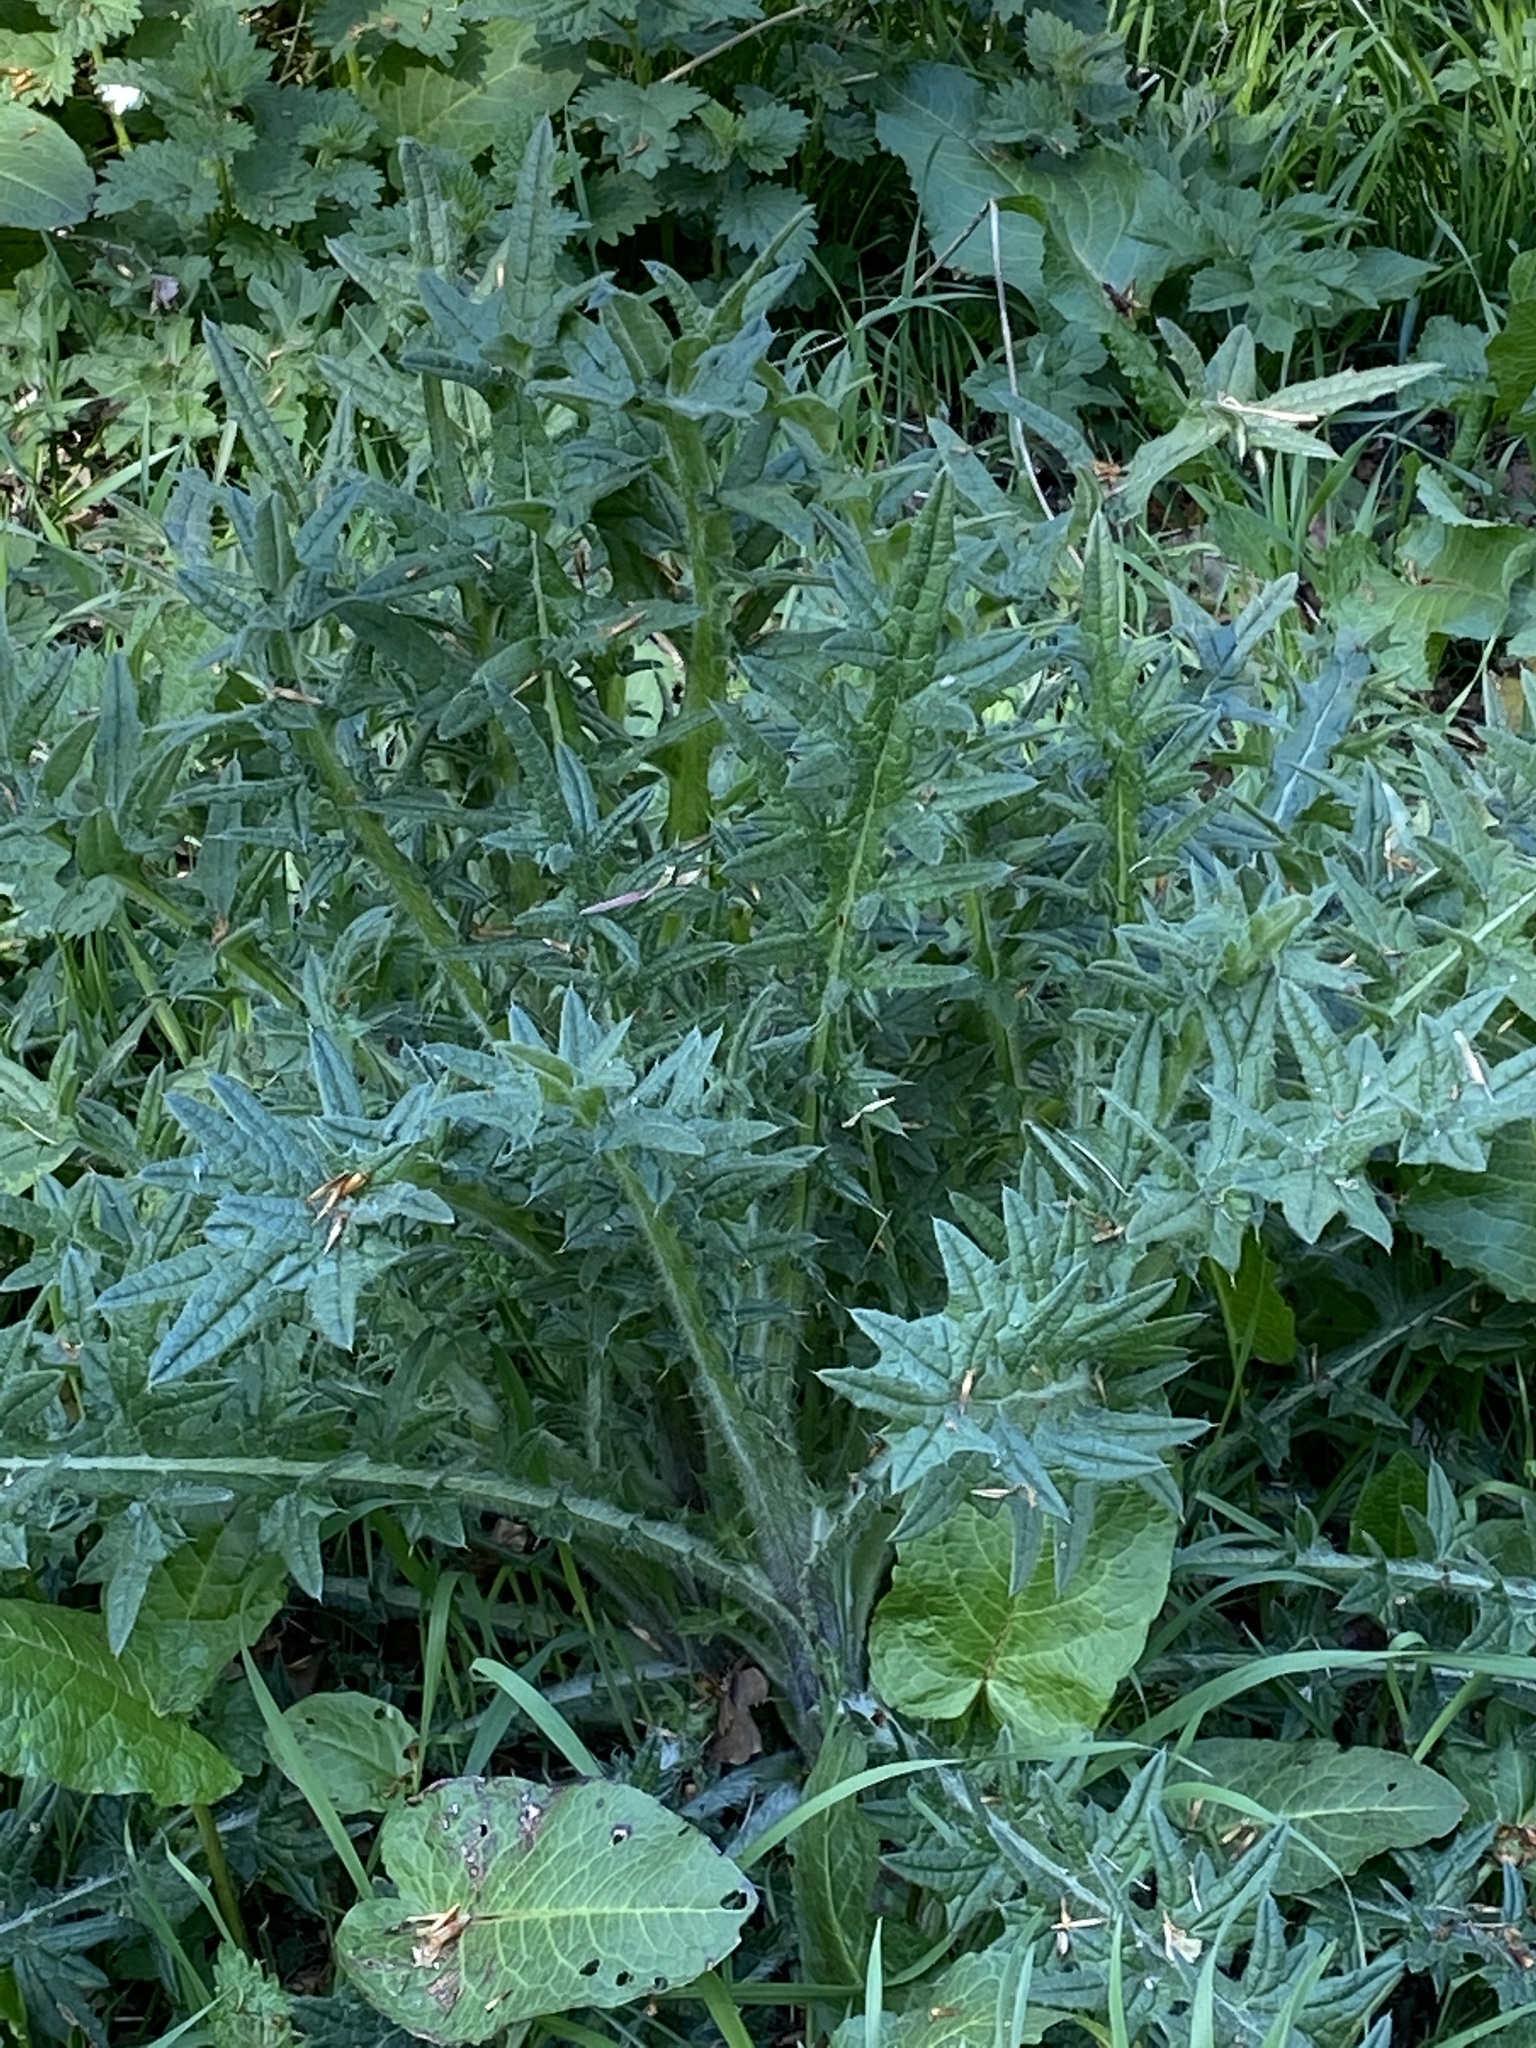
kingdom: Plantae
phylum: Tracheophyta
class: Magnoliopsida
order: Asterales
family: Asteraceae
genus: Cirsium
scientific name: Cirsium vulgare
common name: Bull thistle
